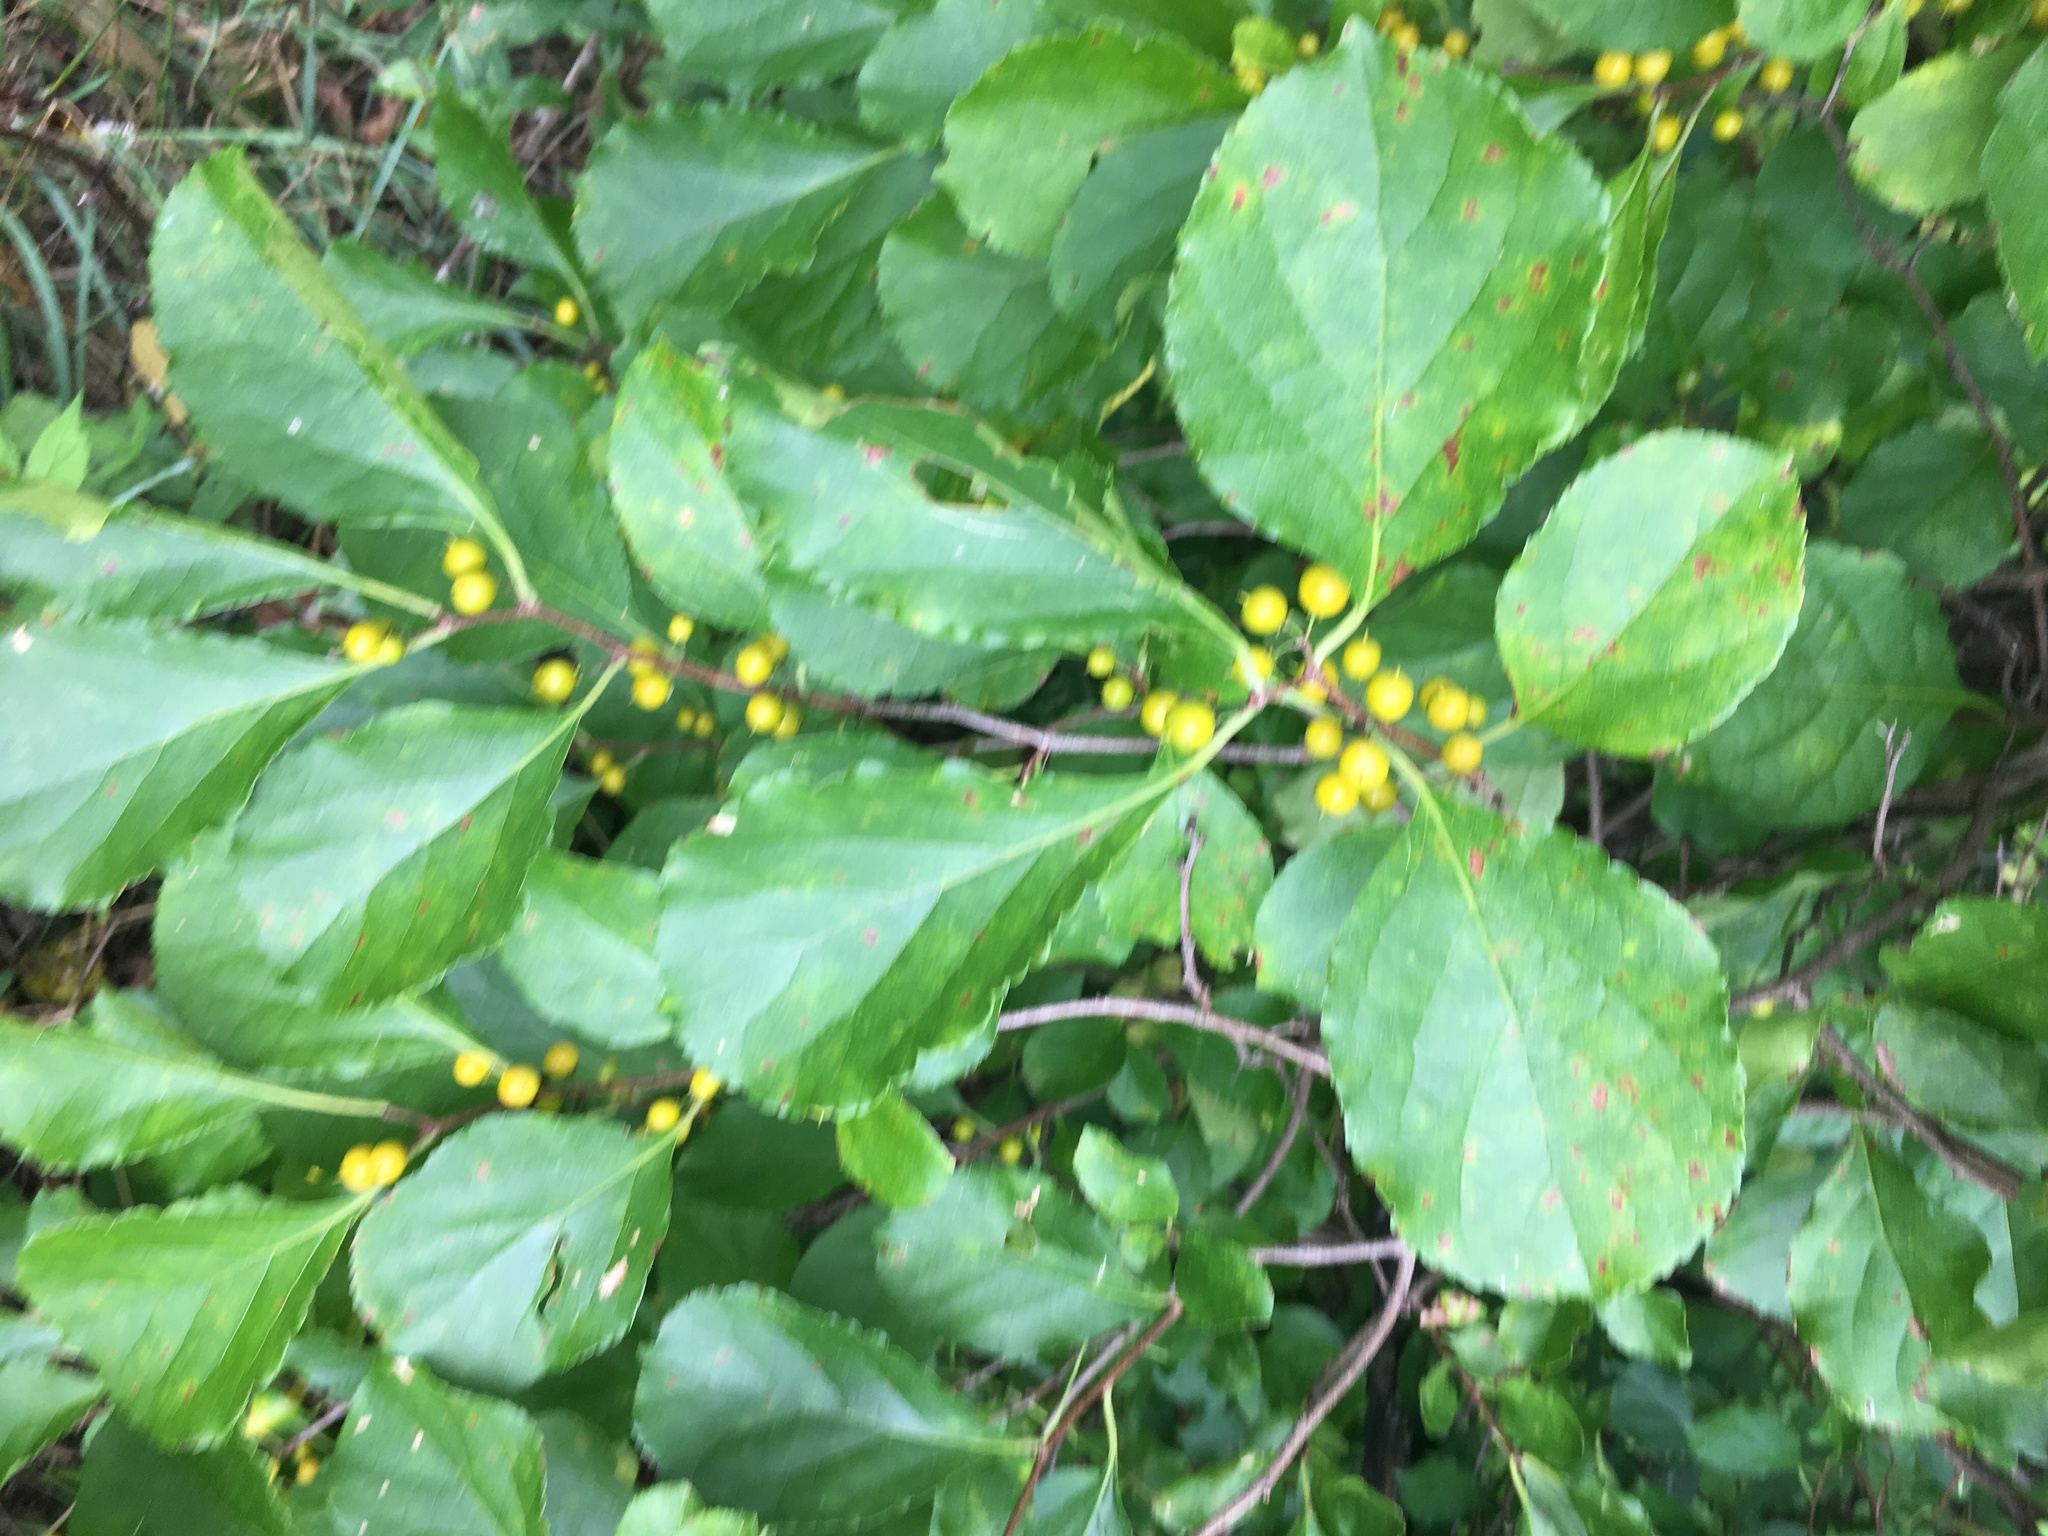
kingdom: Plantae
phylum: Tracheophyta
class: Magnoliopsida
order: Celastrales
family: Celastraceae
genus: Celastrus
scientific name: Celastrus orbiculatus
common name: Oriental bittersweet
